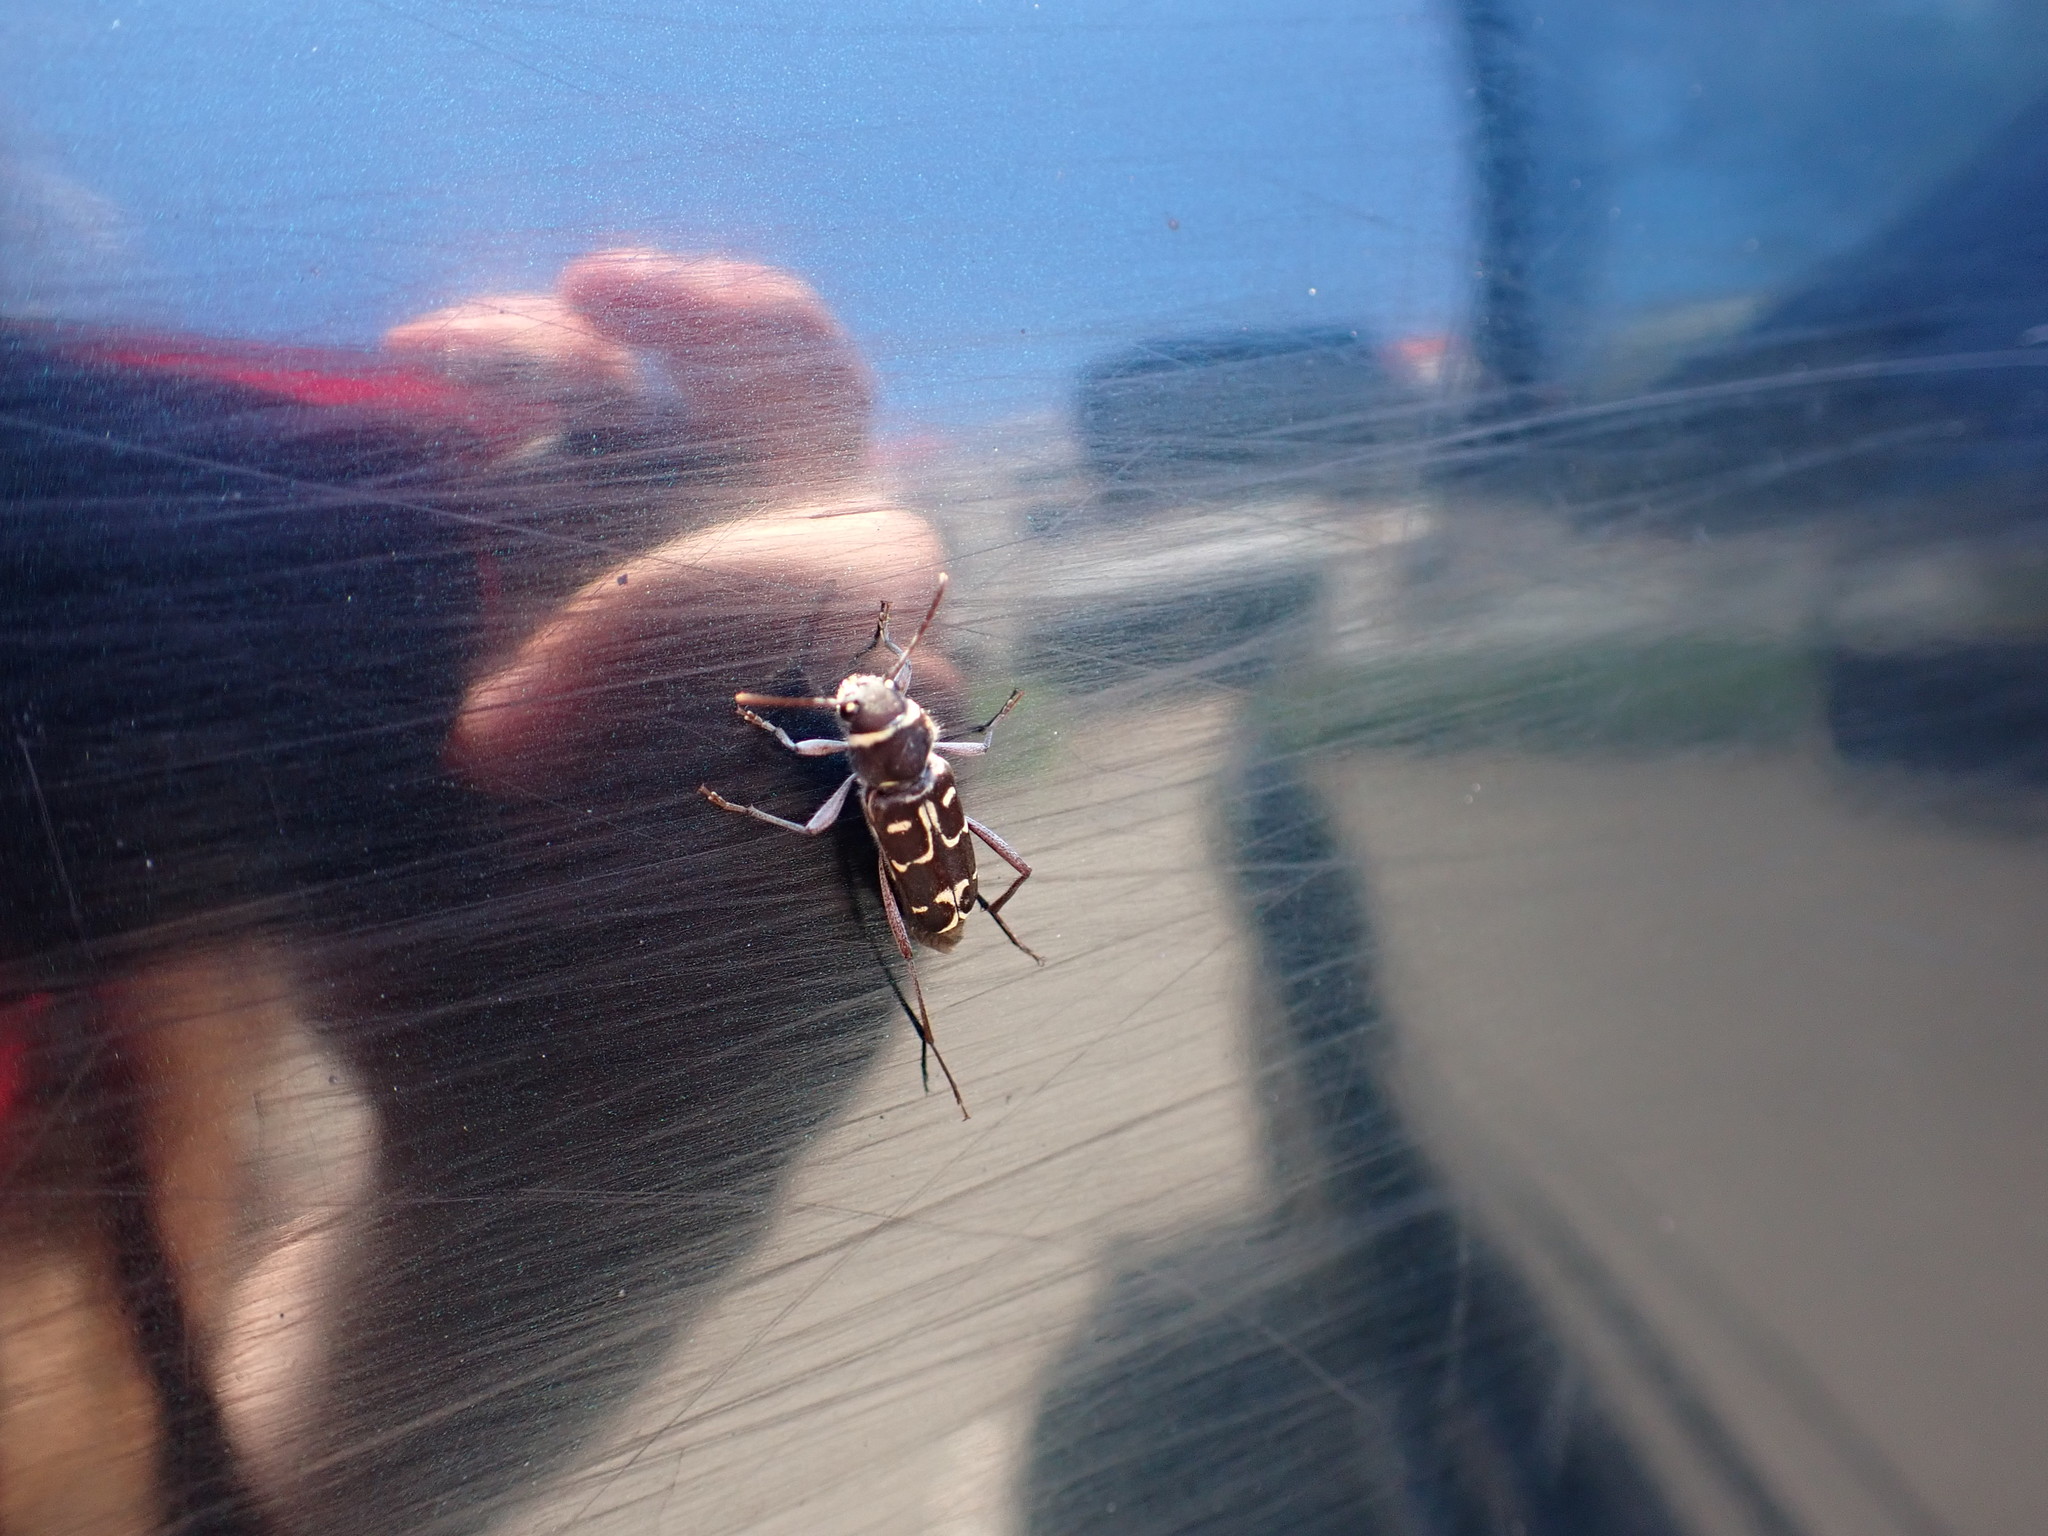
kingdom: Animalia
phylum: Arthropoda
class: Insecta
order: Coleoptera
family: Cerambycidae
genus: Xylotrechus
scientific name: Xylotrechus undulatus
